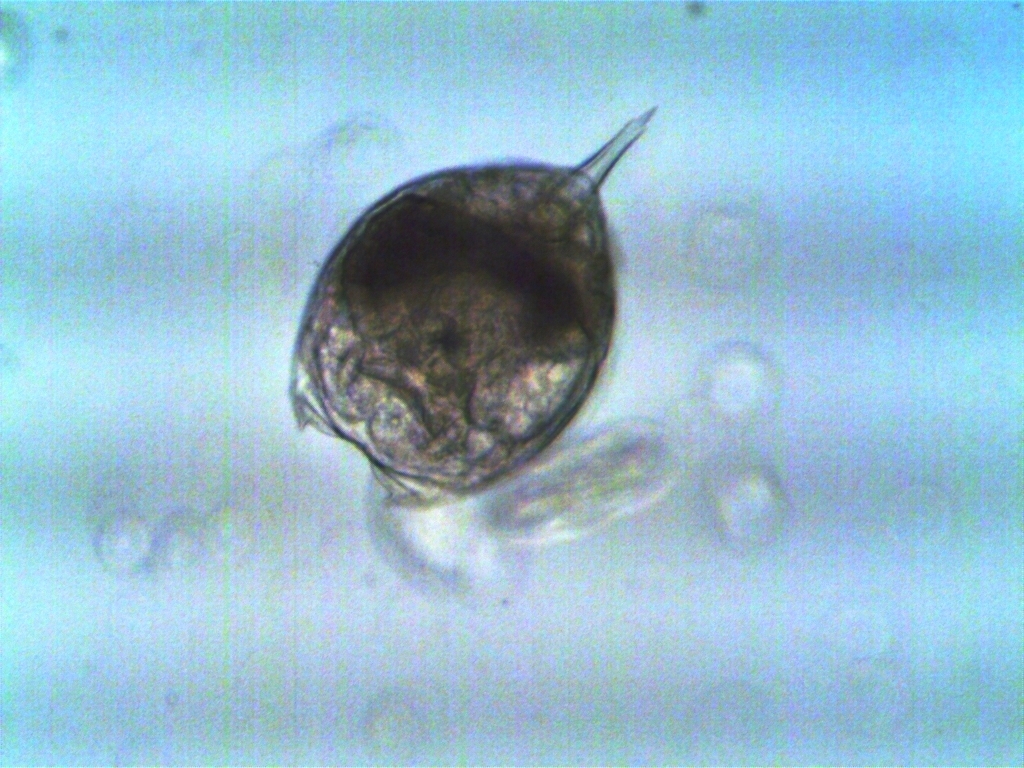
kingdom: Animalia
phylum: Rotifera
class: Eurotatoria
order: Ploima
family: Lecanidae
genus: Lecane
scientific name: Lecane stenroosi
